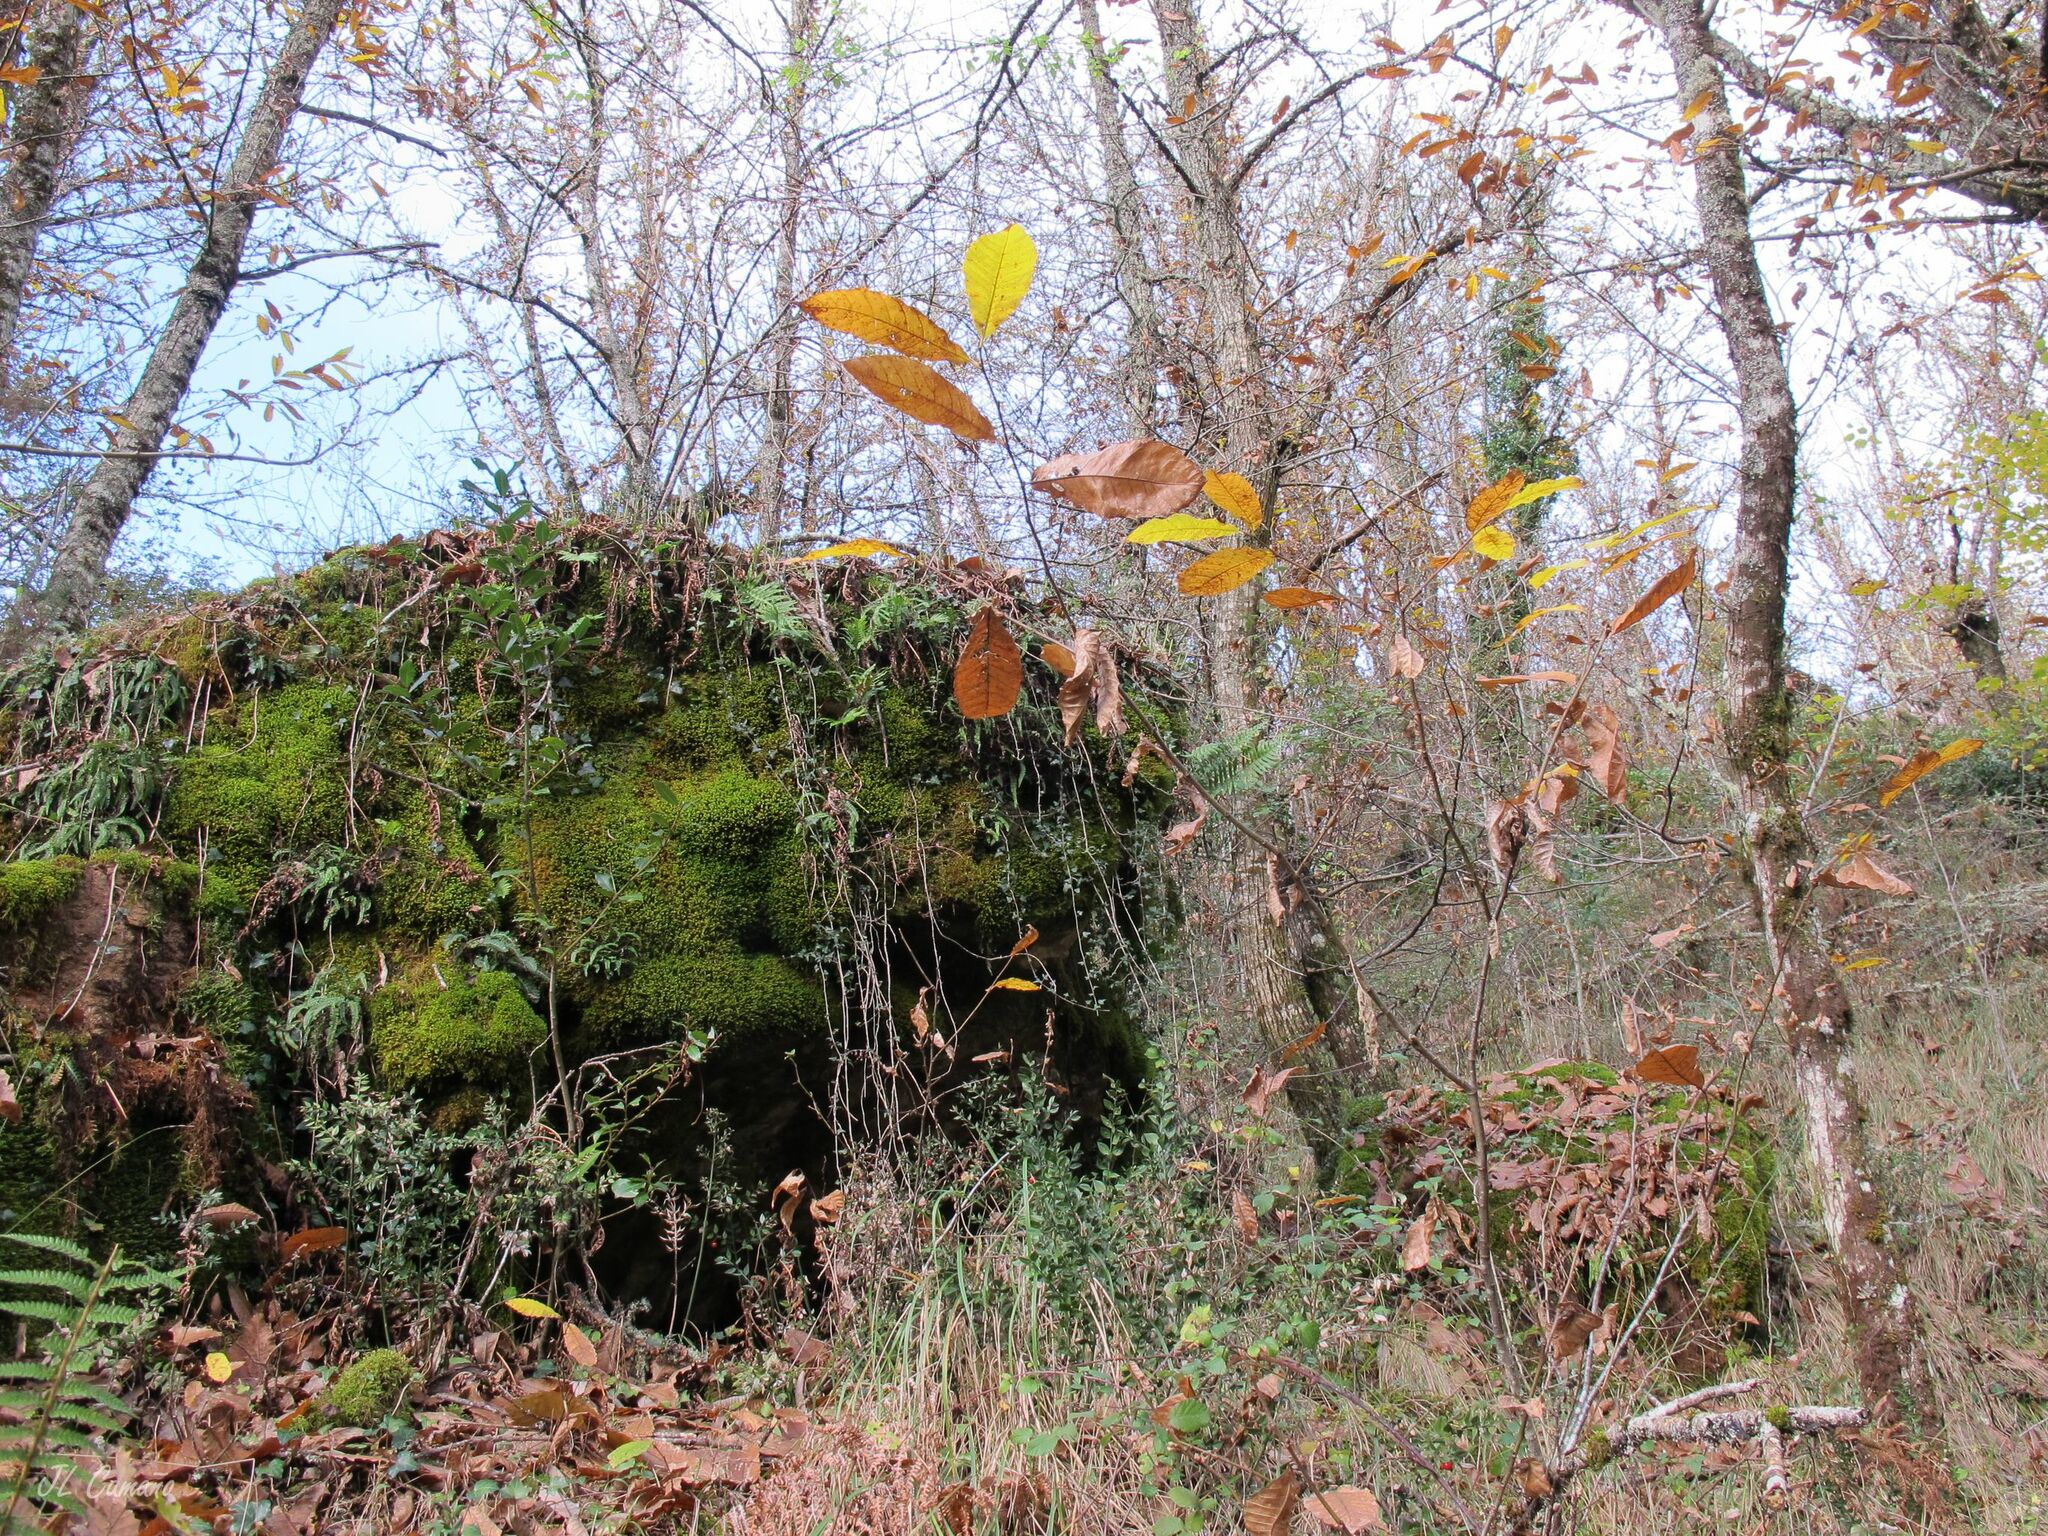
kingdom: Plantae
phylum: Bryophyta
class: Bryopsida
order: Hypnales
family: Neckeraceae
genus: Alleniella
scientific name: Alleniella complanata
